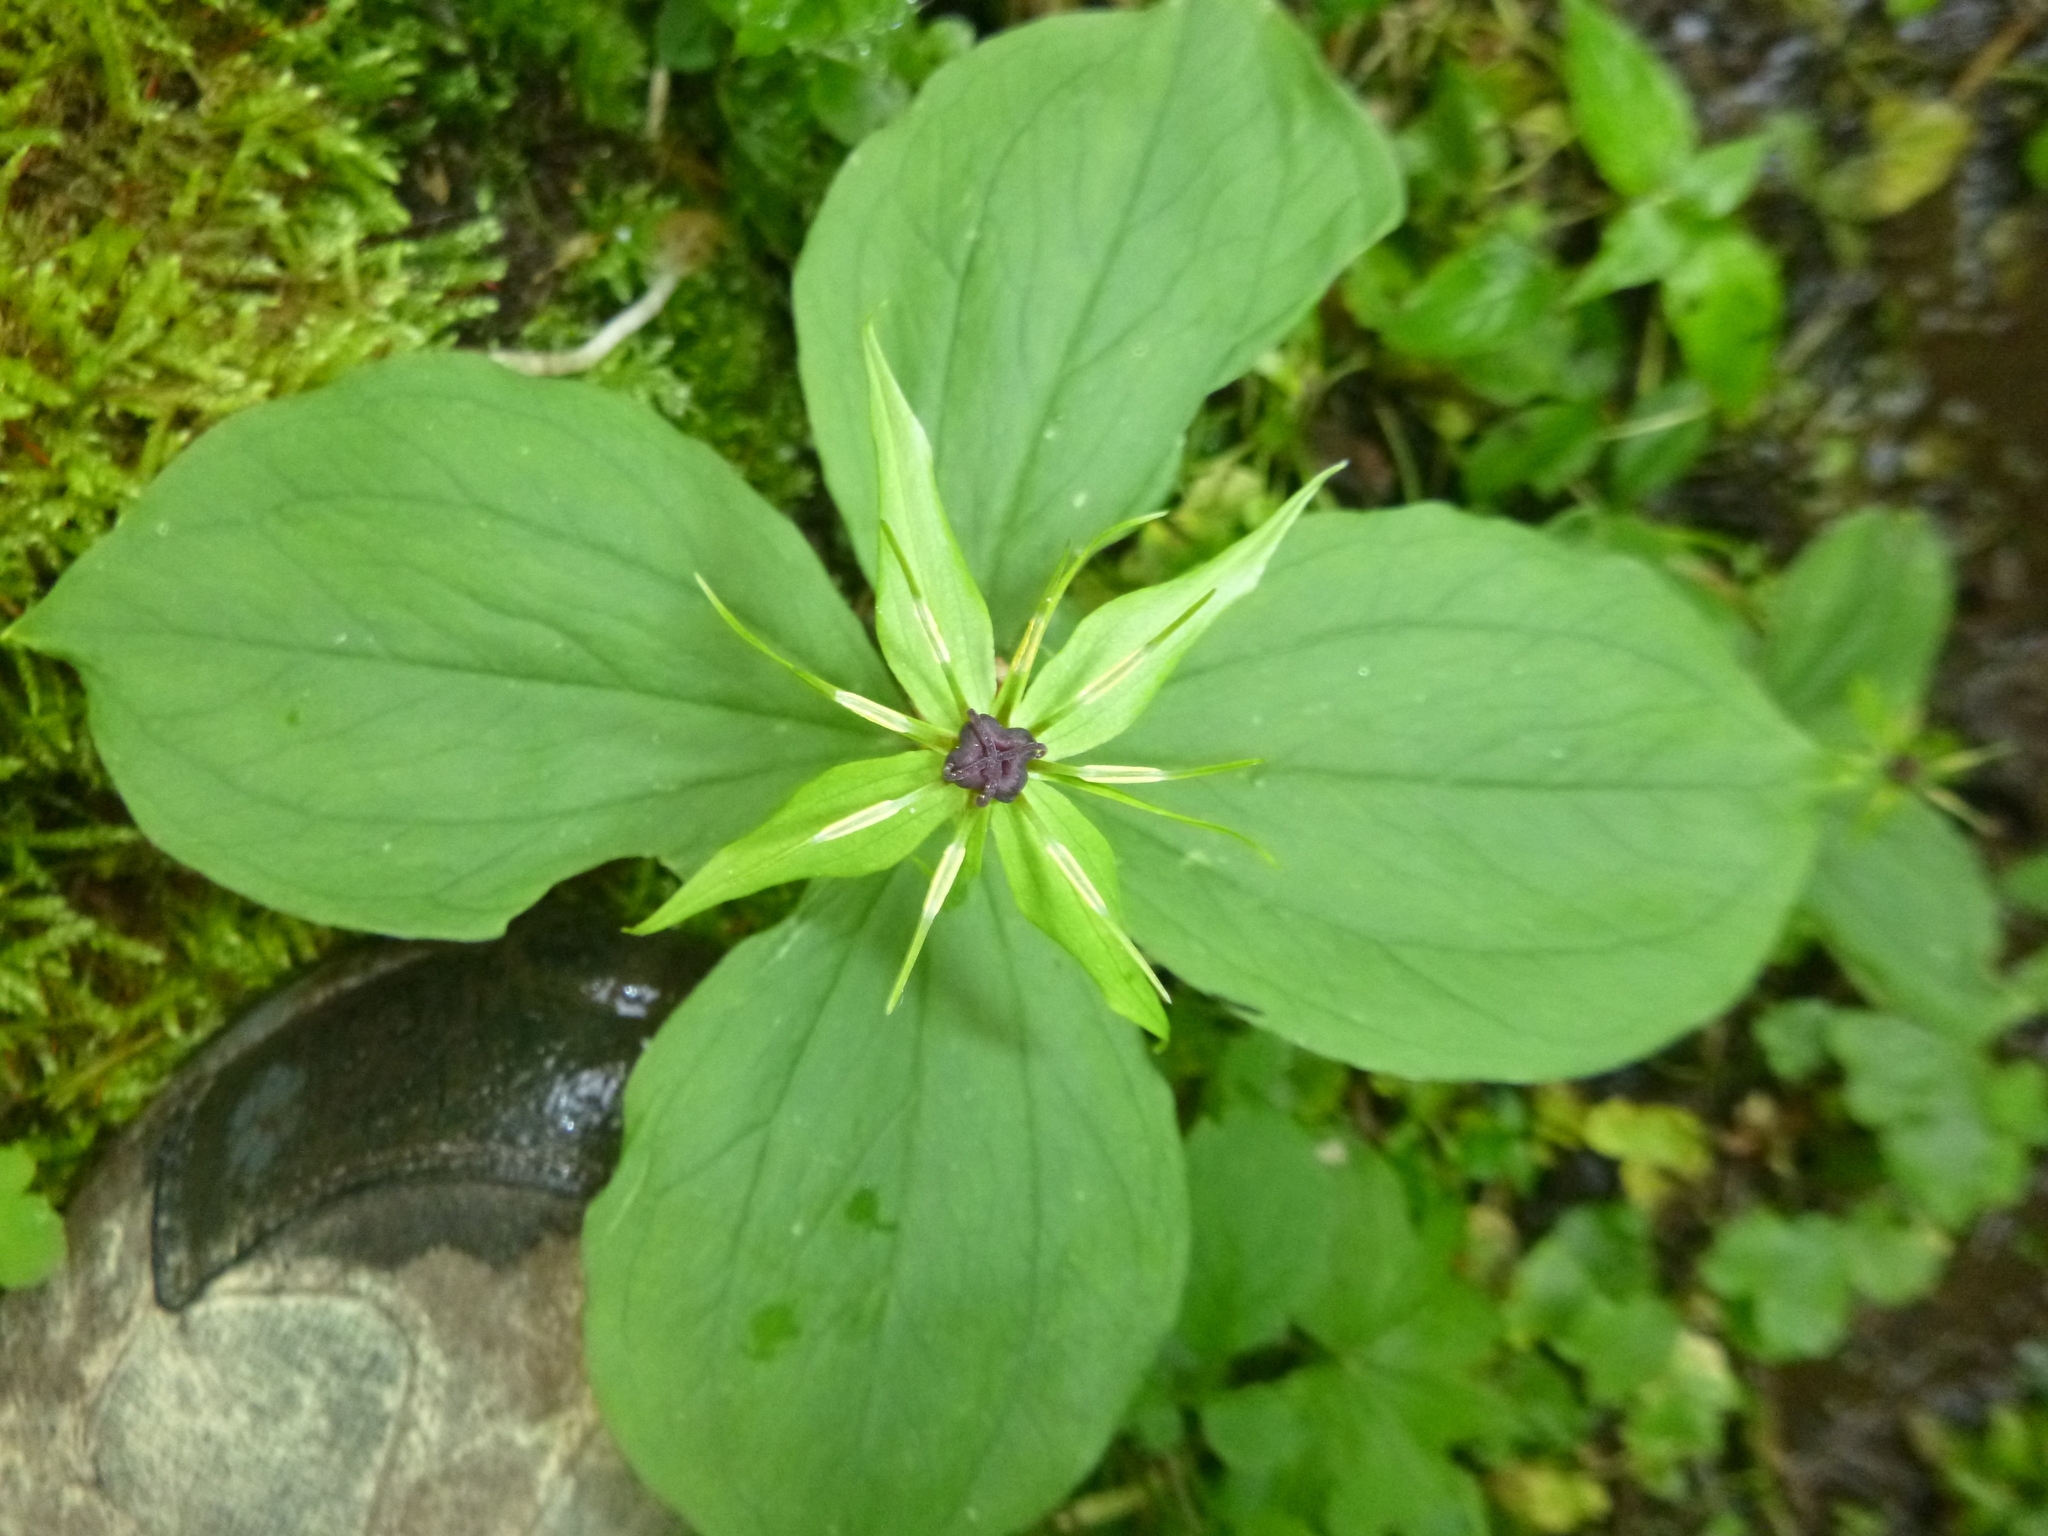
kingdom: Plantae
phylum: Tracheophyta
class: Liliopsida
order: Liliales
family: Melanthiaceae
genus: Paris
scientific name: Paris quadrifolia
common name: Herb-paris
